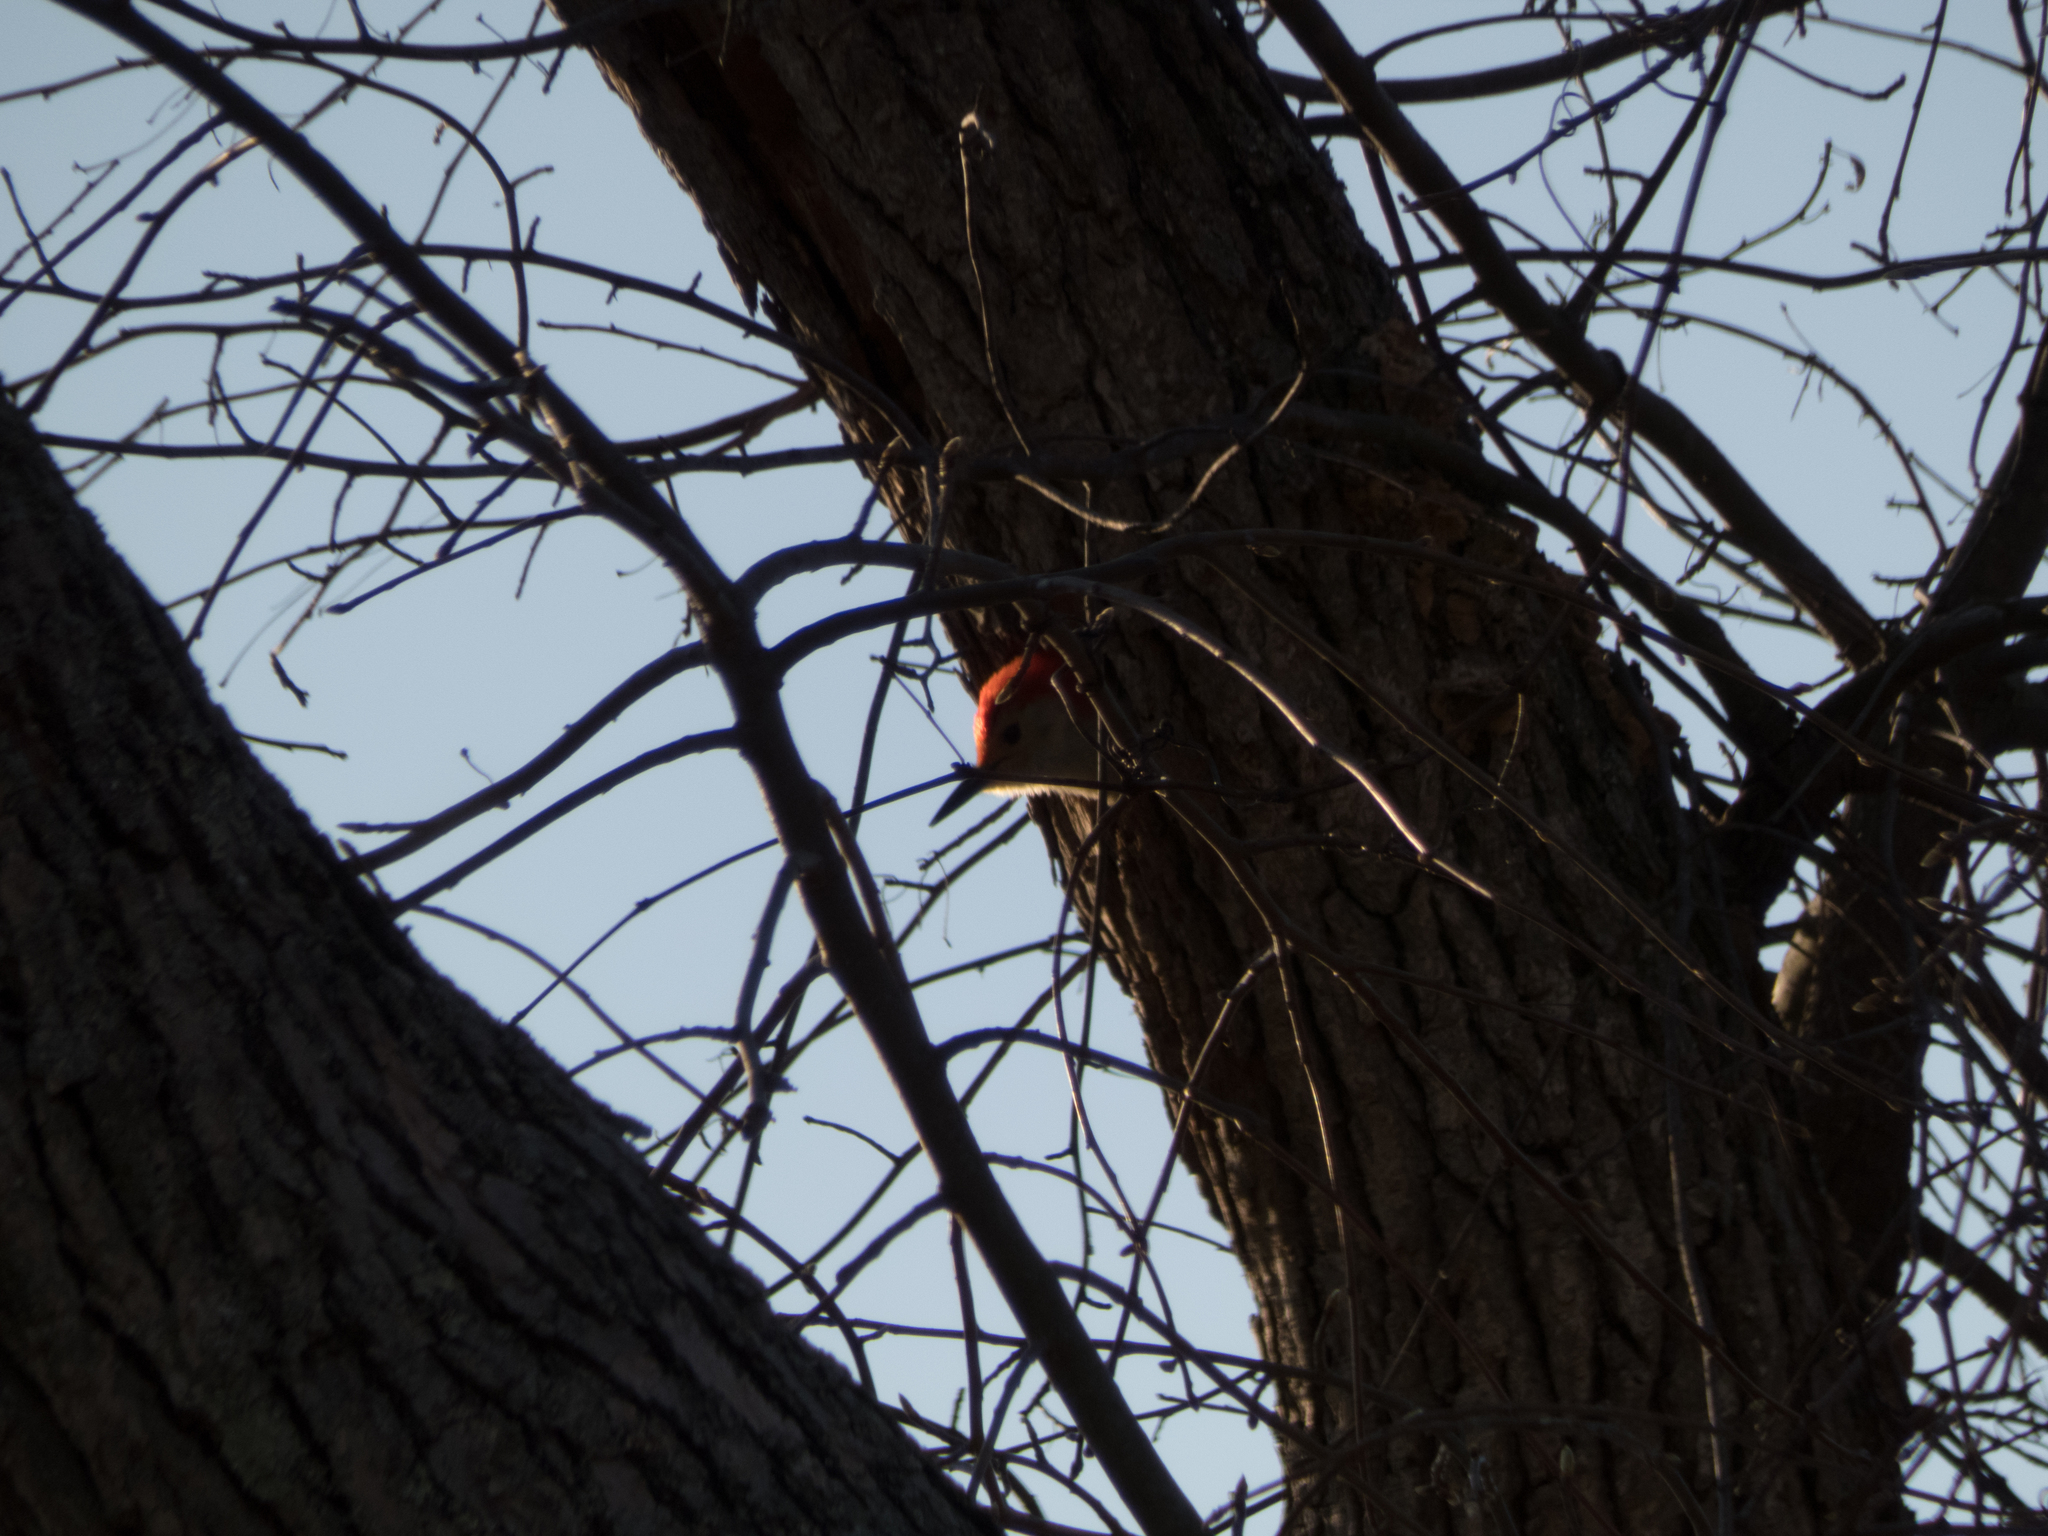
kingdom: Animalia
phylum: Chordata
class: Aves
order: Piciformes
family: Picidae
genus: Melanerpes
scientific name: Melanerpes carolinus
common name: Red-bellied woodpecker
